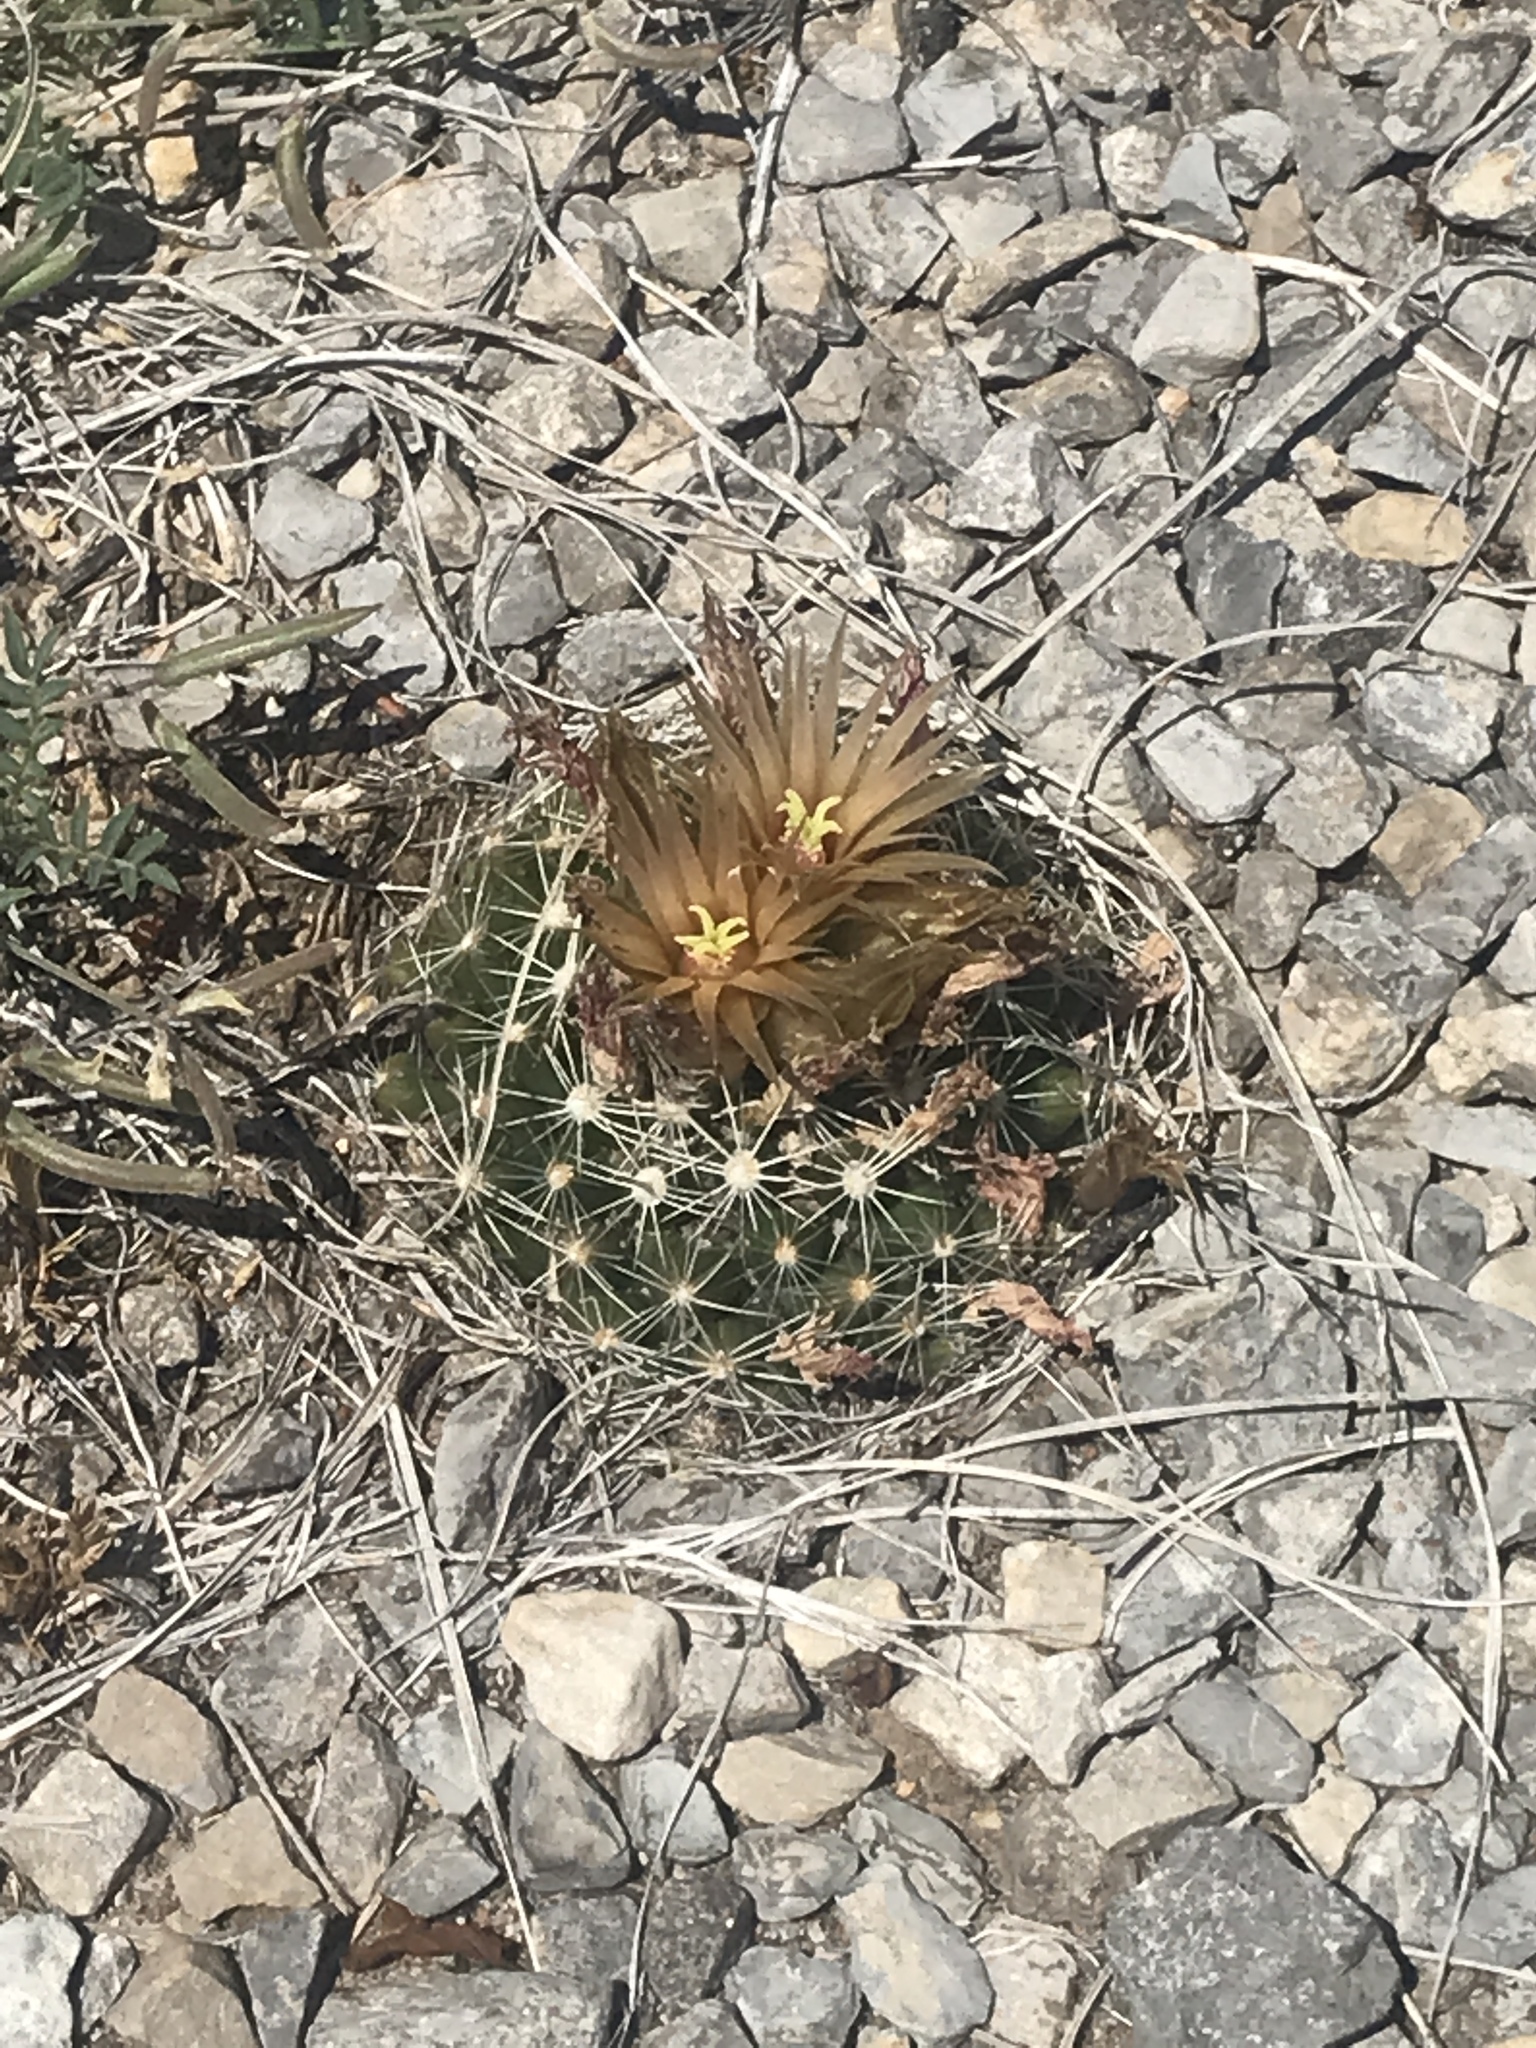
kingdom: Plantae
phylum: Tracheophyta
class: Magnoliopsida
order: Caryophyllales
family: Cactaceae
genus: Pelecyphora
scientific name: Pelecyphora missouriensis
